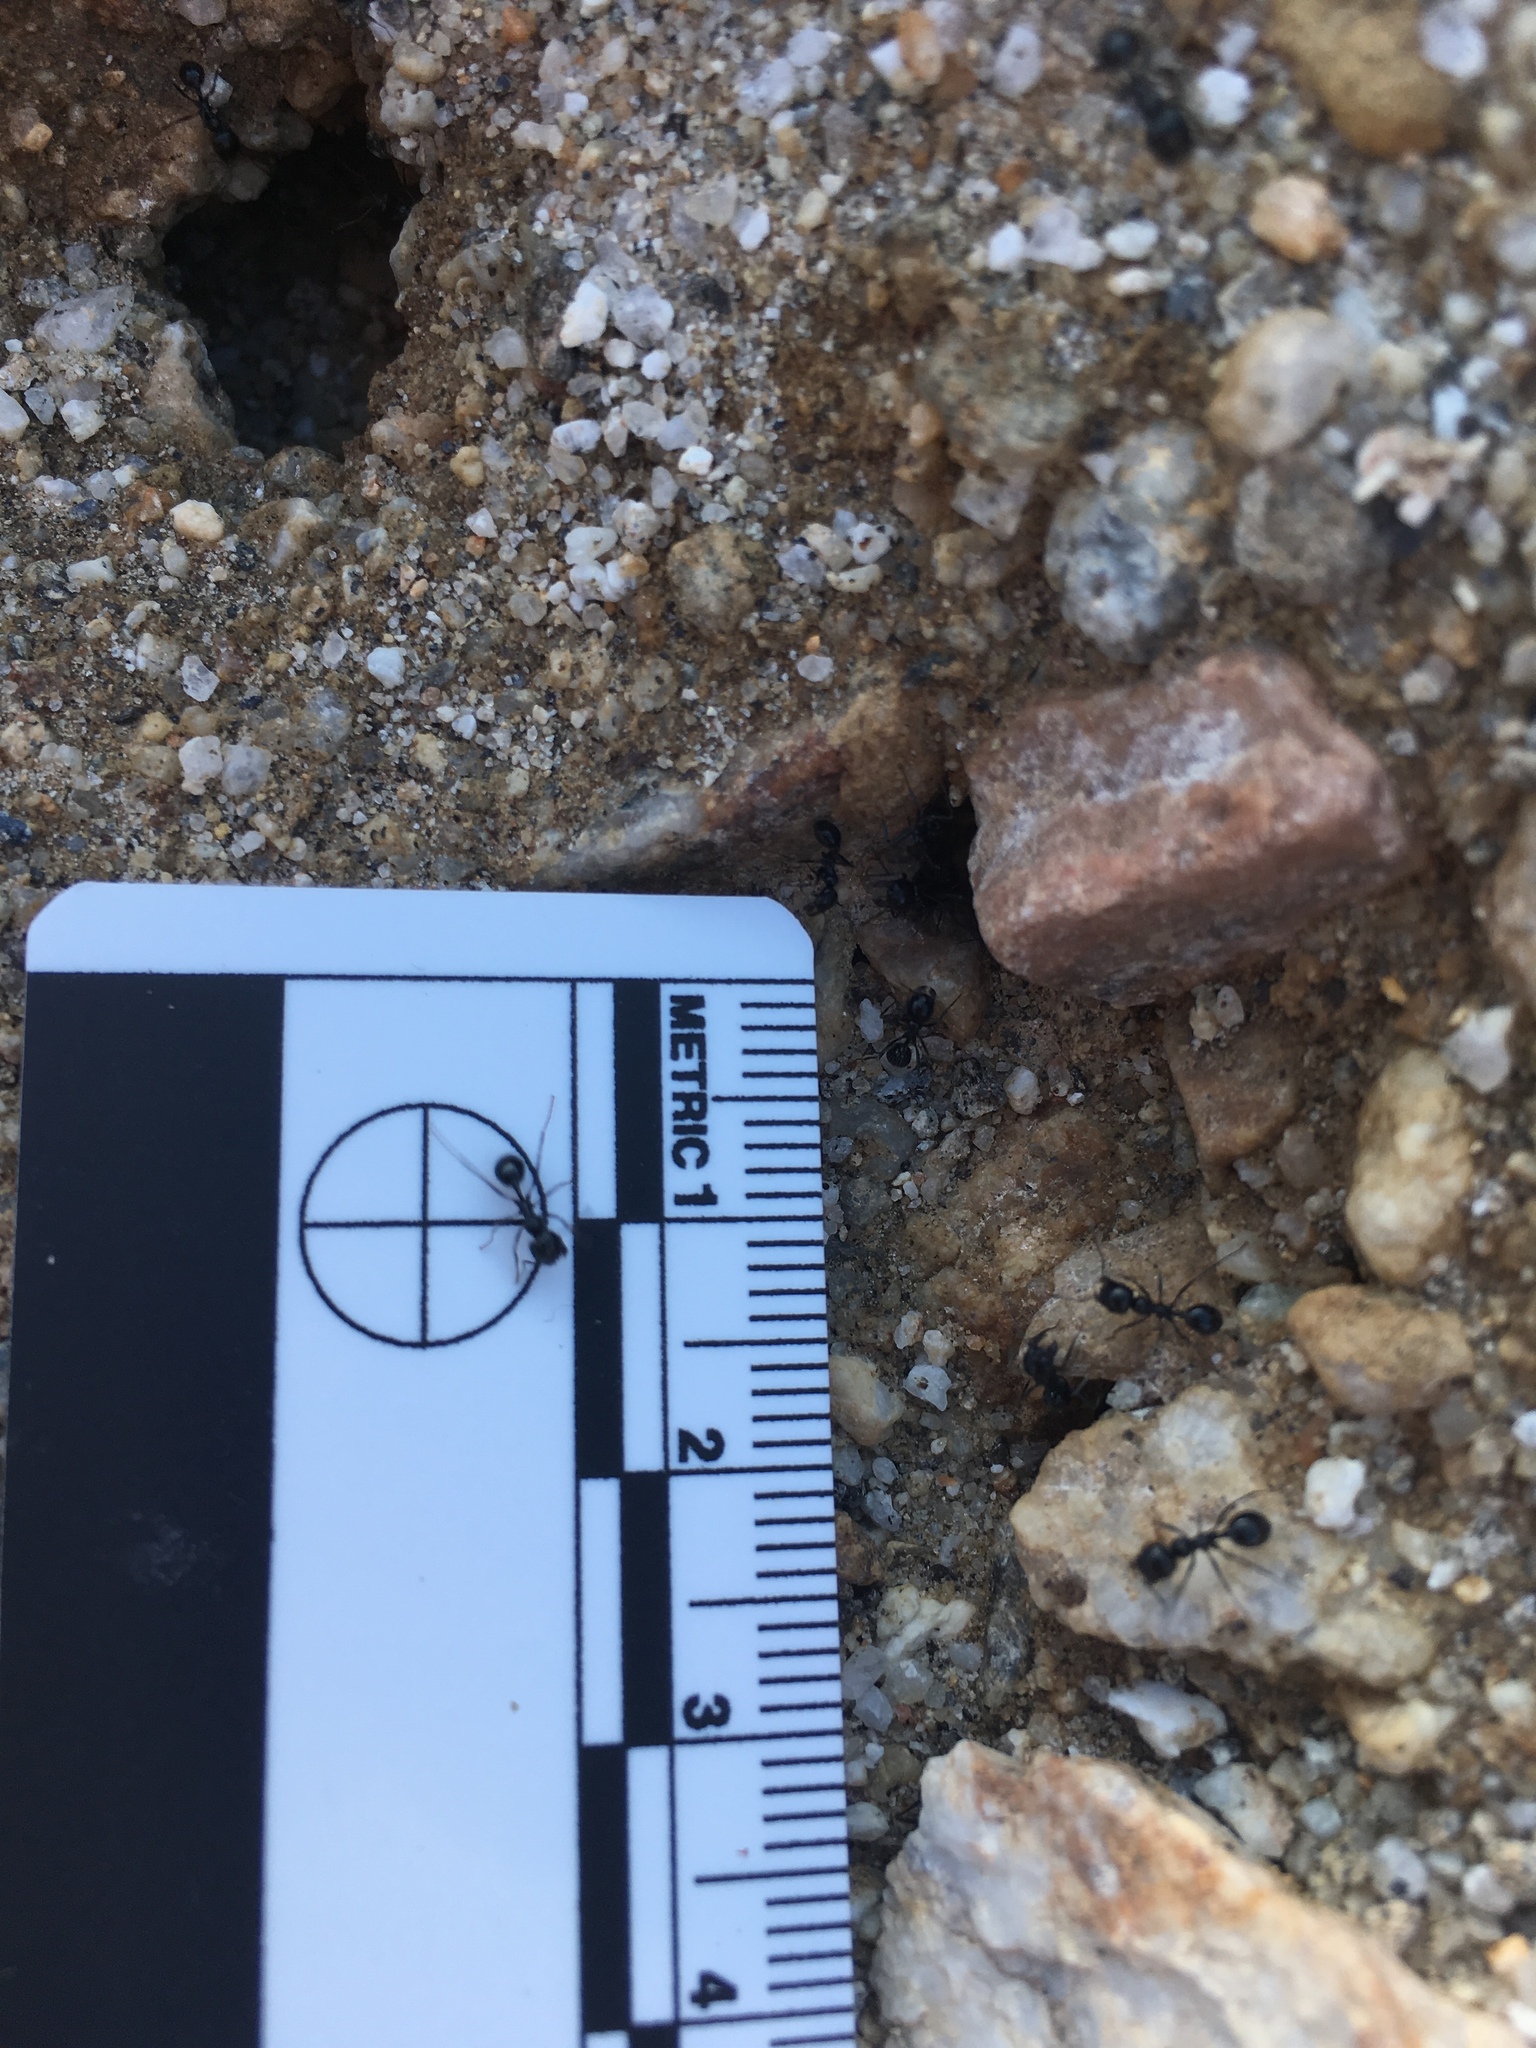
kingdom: Animalia
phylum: Arthropoda
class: Insecta
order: Hymenoptera
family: Formicidae
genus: Messor
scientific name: Messor pergandei
